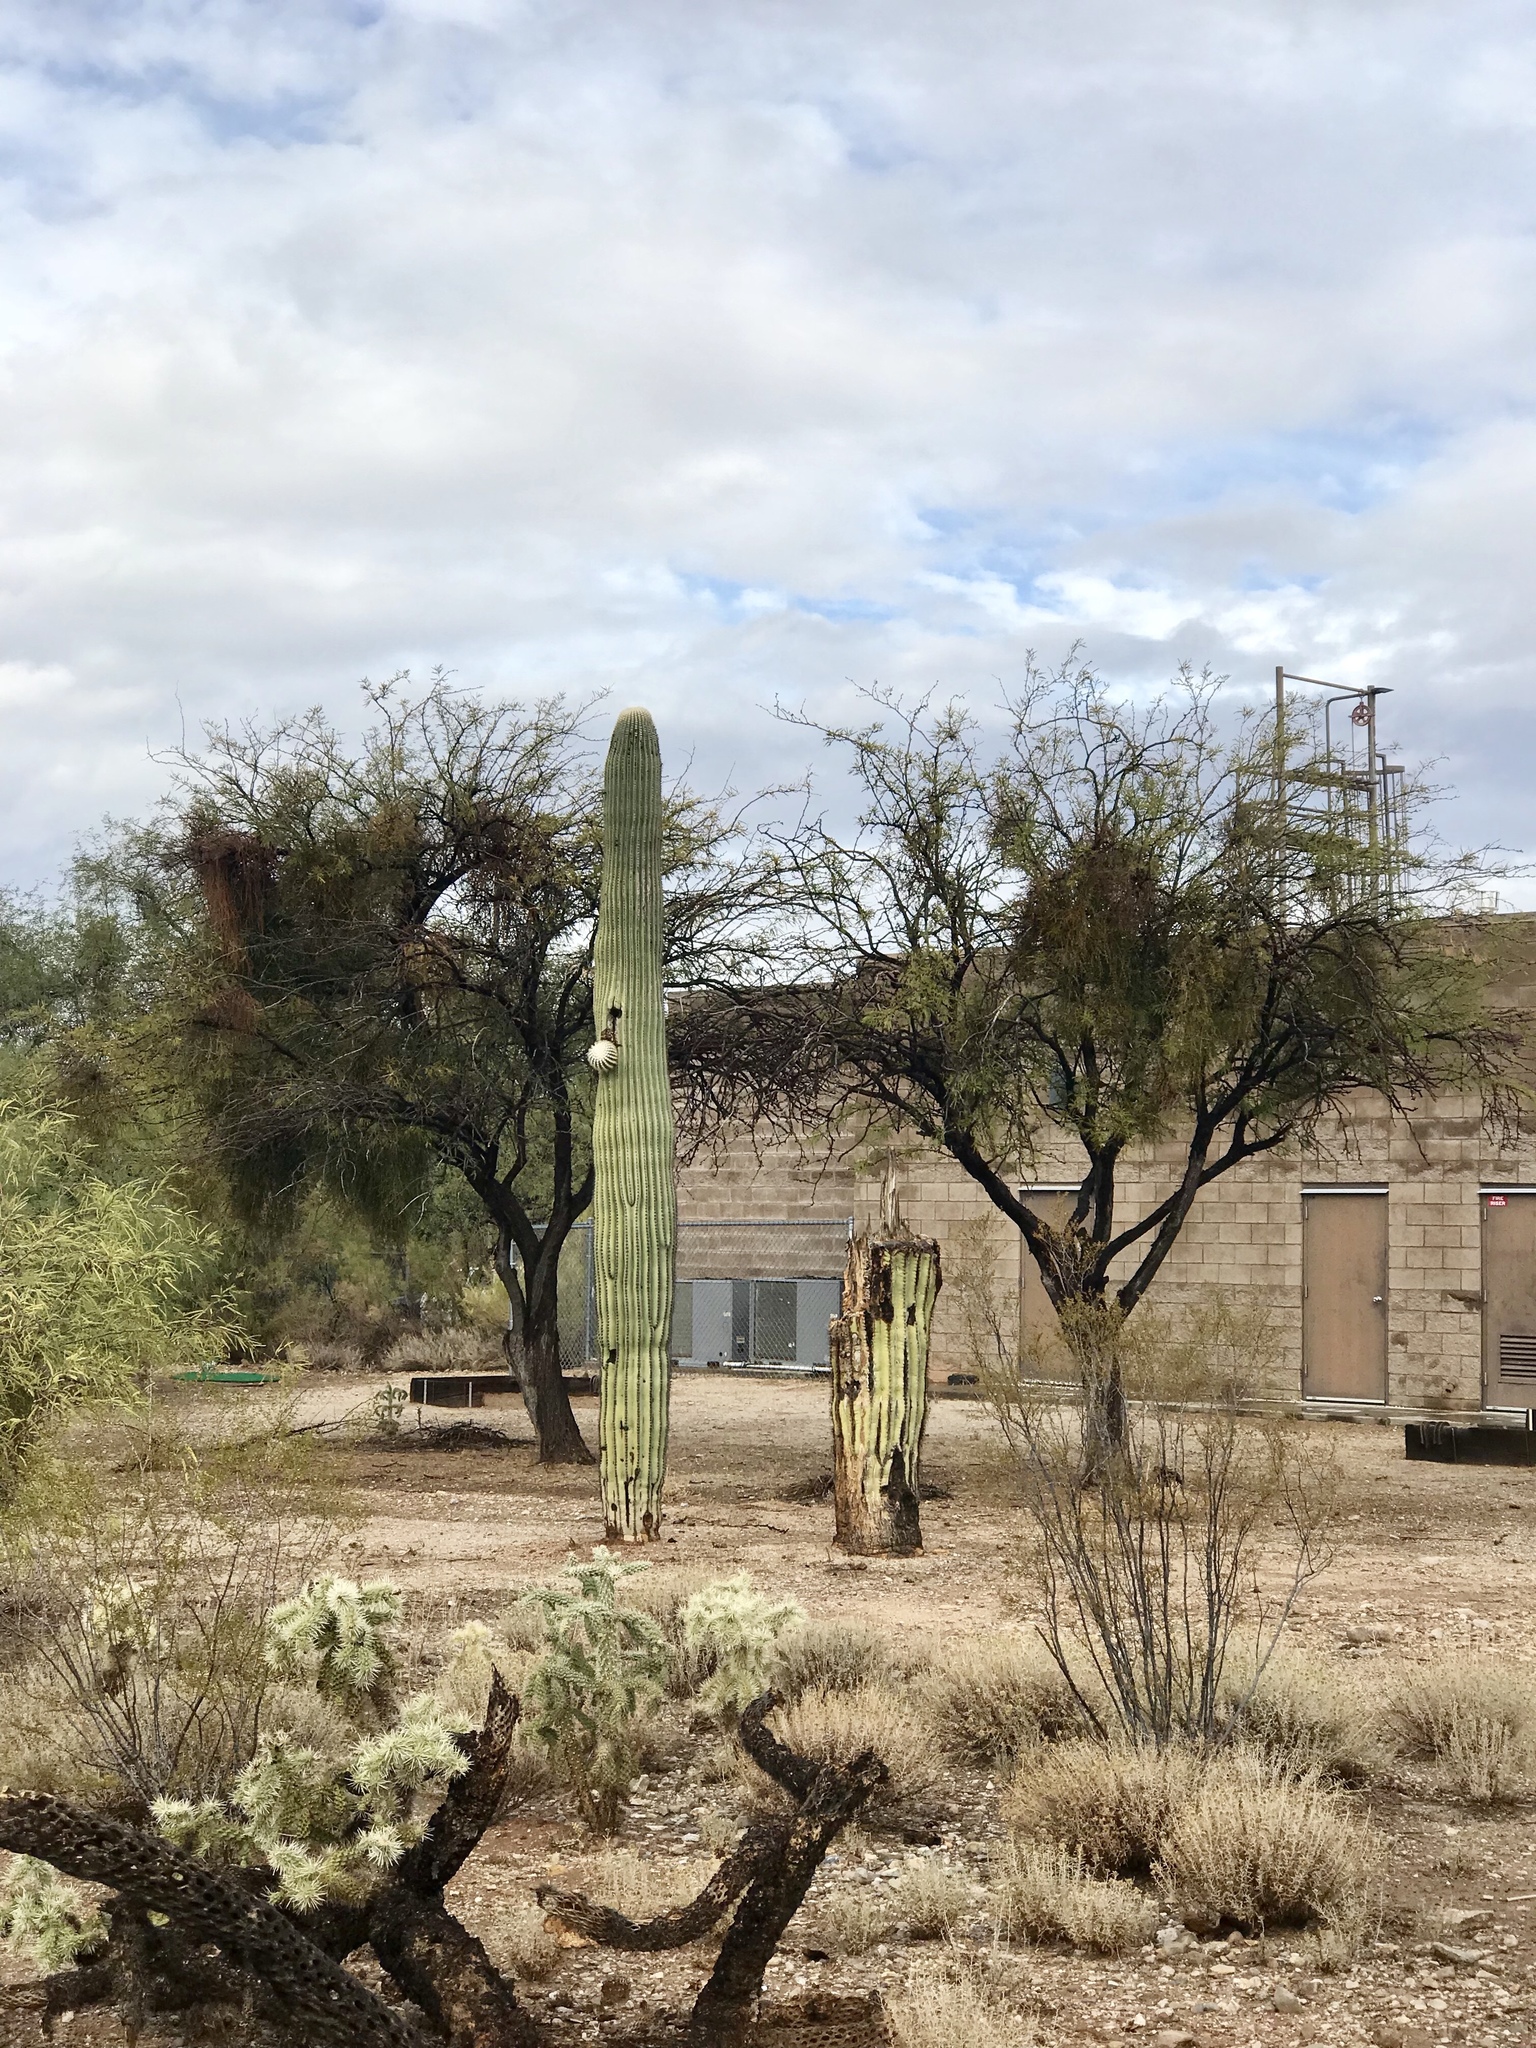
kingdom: Plantae
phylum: Tracheophyta
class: Magnoliopsida
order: Caryophyllales
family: Cactaceae
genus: Carnegiea
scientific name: Carnegiea gigantea
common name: Saguaro
